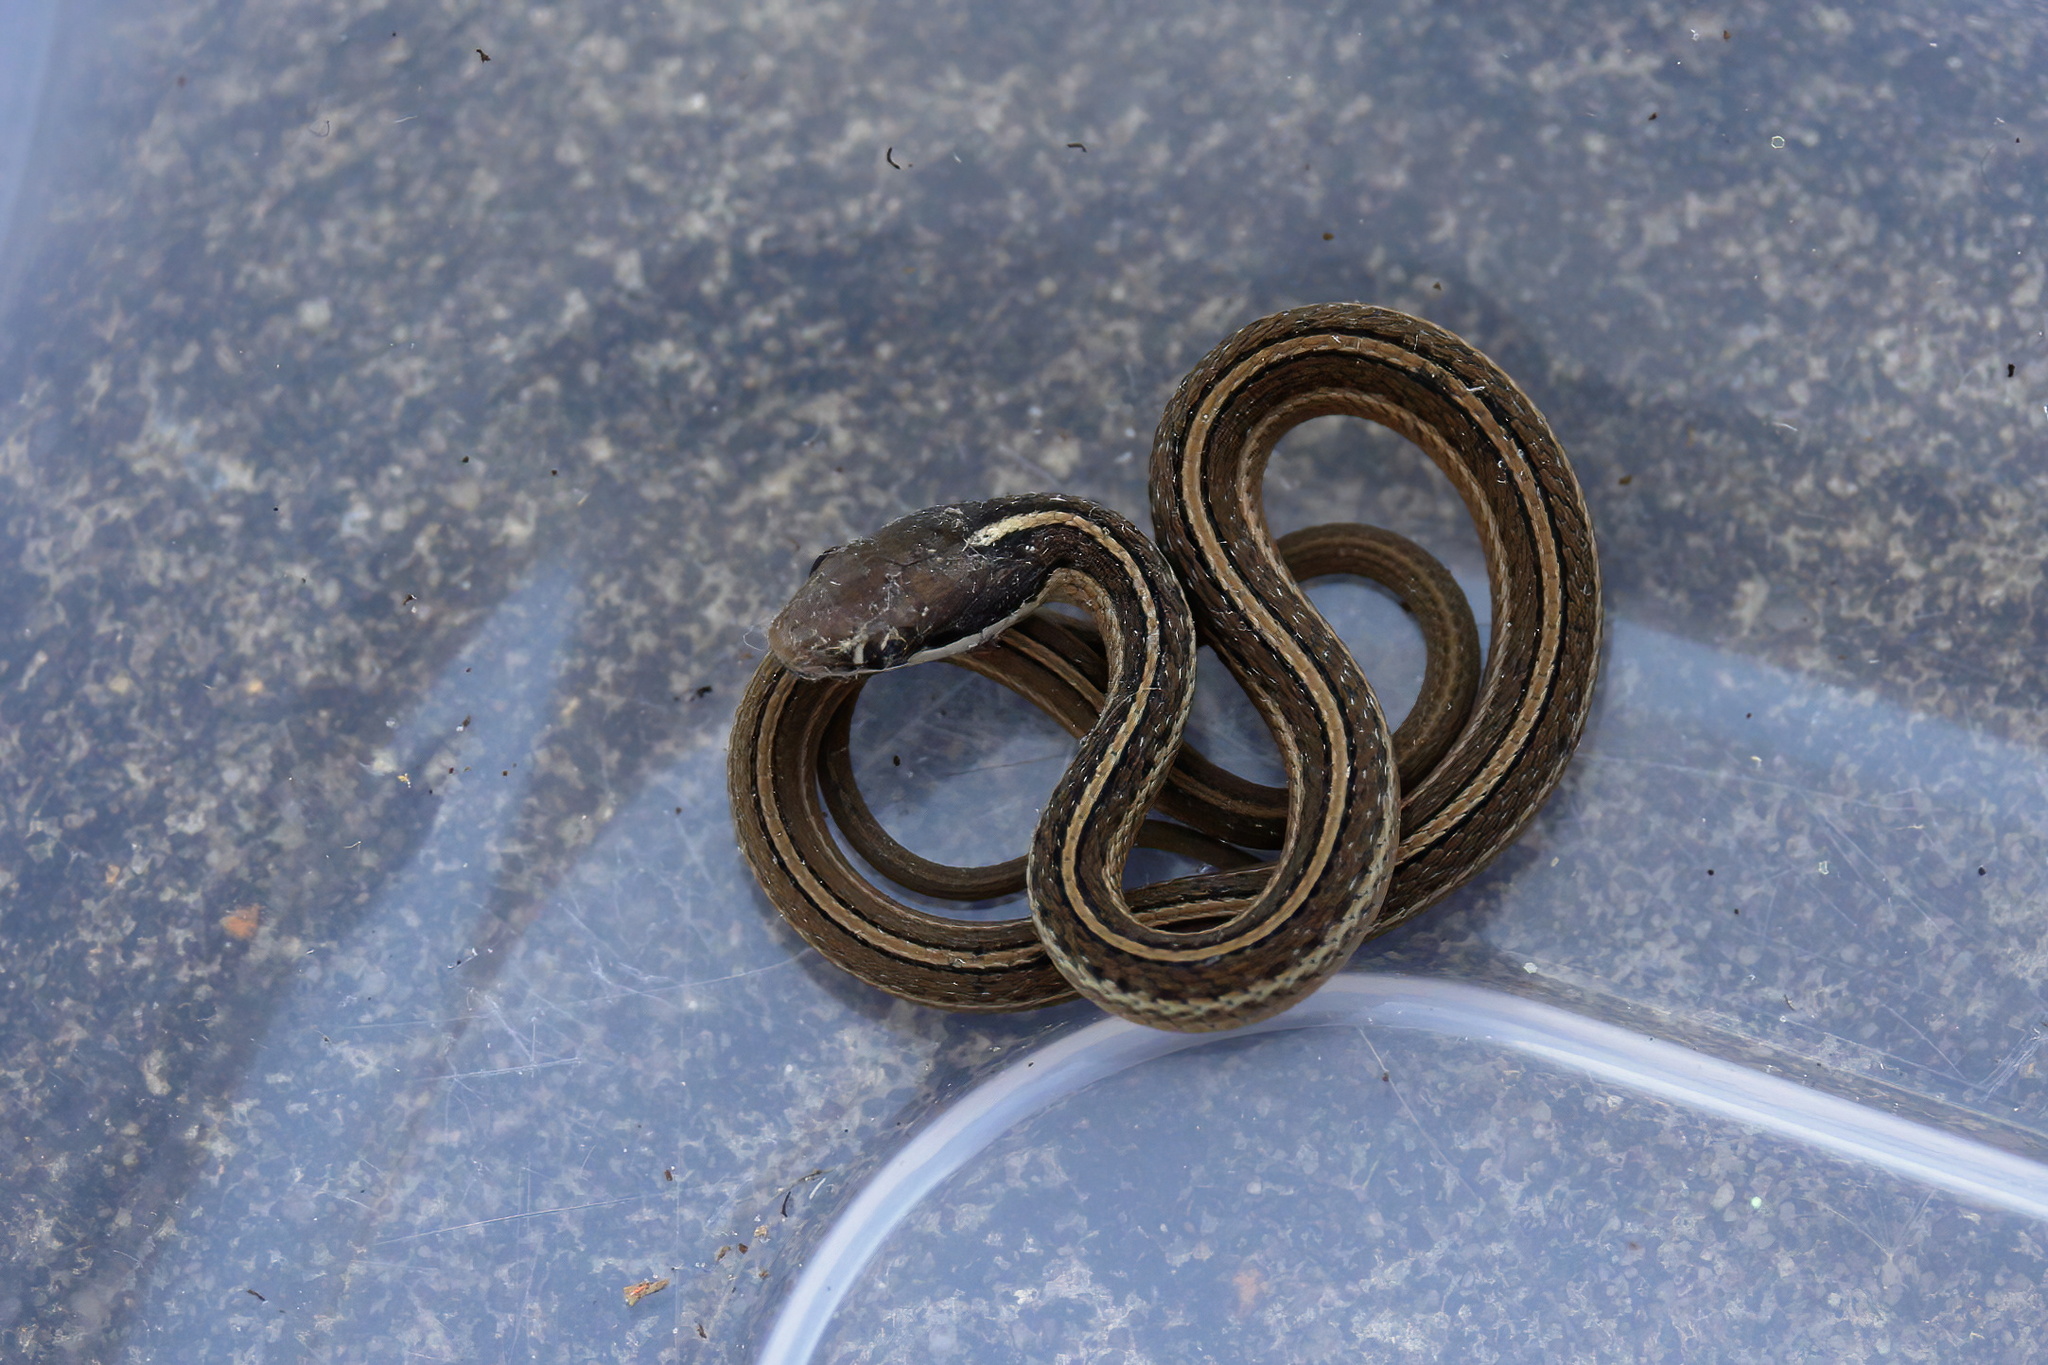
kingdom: Animalia
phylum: Chordata
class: Squamata
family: Colubridae
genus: Thamnophis
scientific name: Thamnophis saurita
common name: Eastern ribbonsnake
